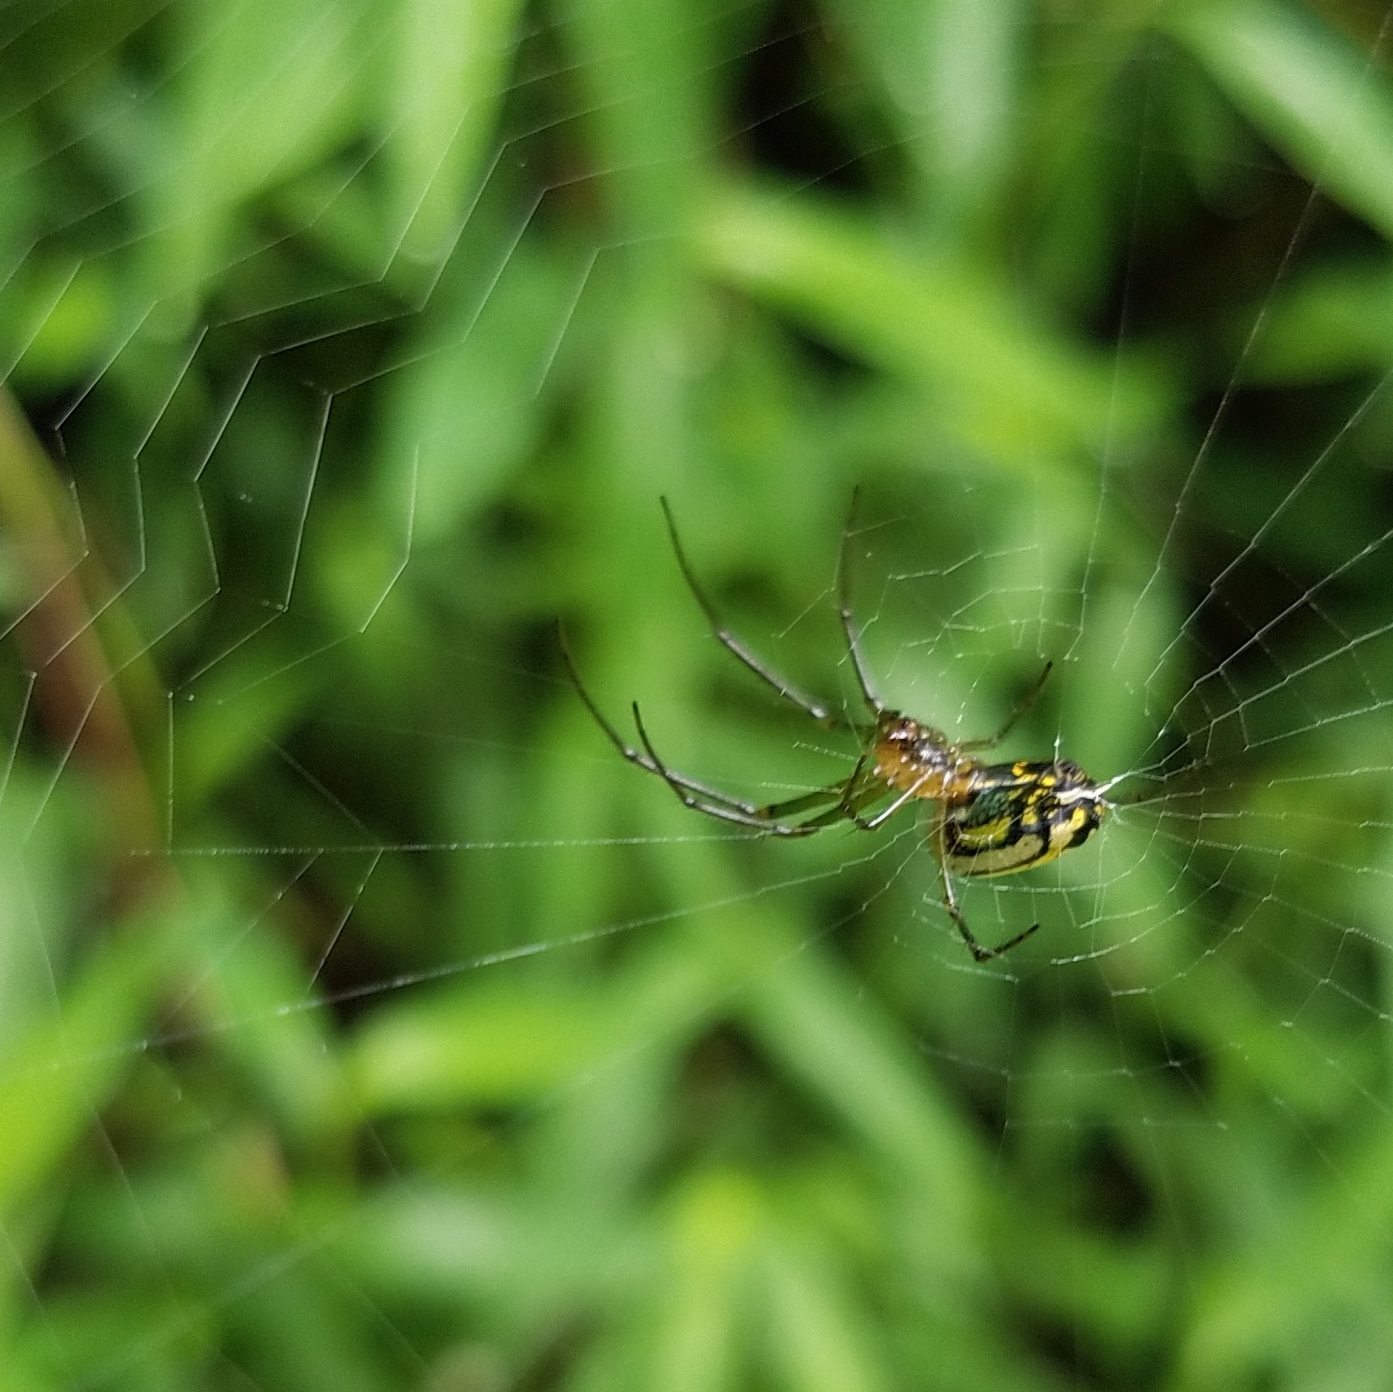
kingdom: Animalia
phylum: Arthropoda
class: Arachnida
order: Araneae
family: Tetragnathidae
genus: Leucauge
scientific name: Leucauge venusta
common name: Longjawed orb weavers
